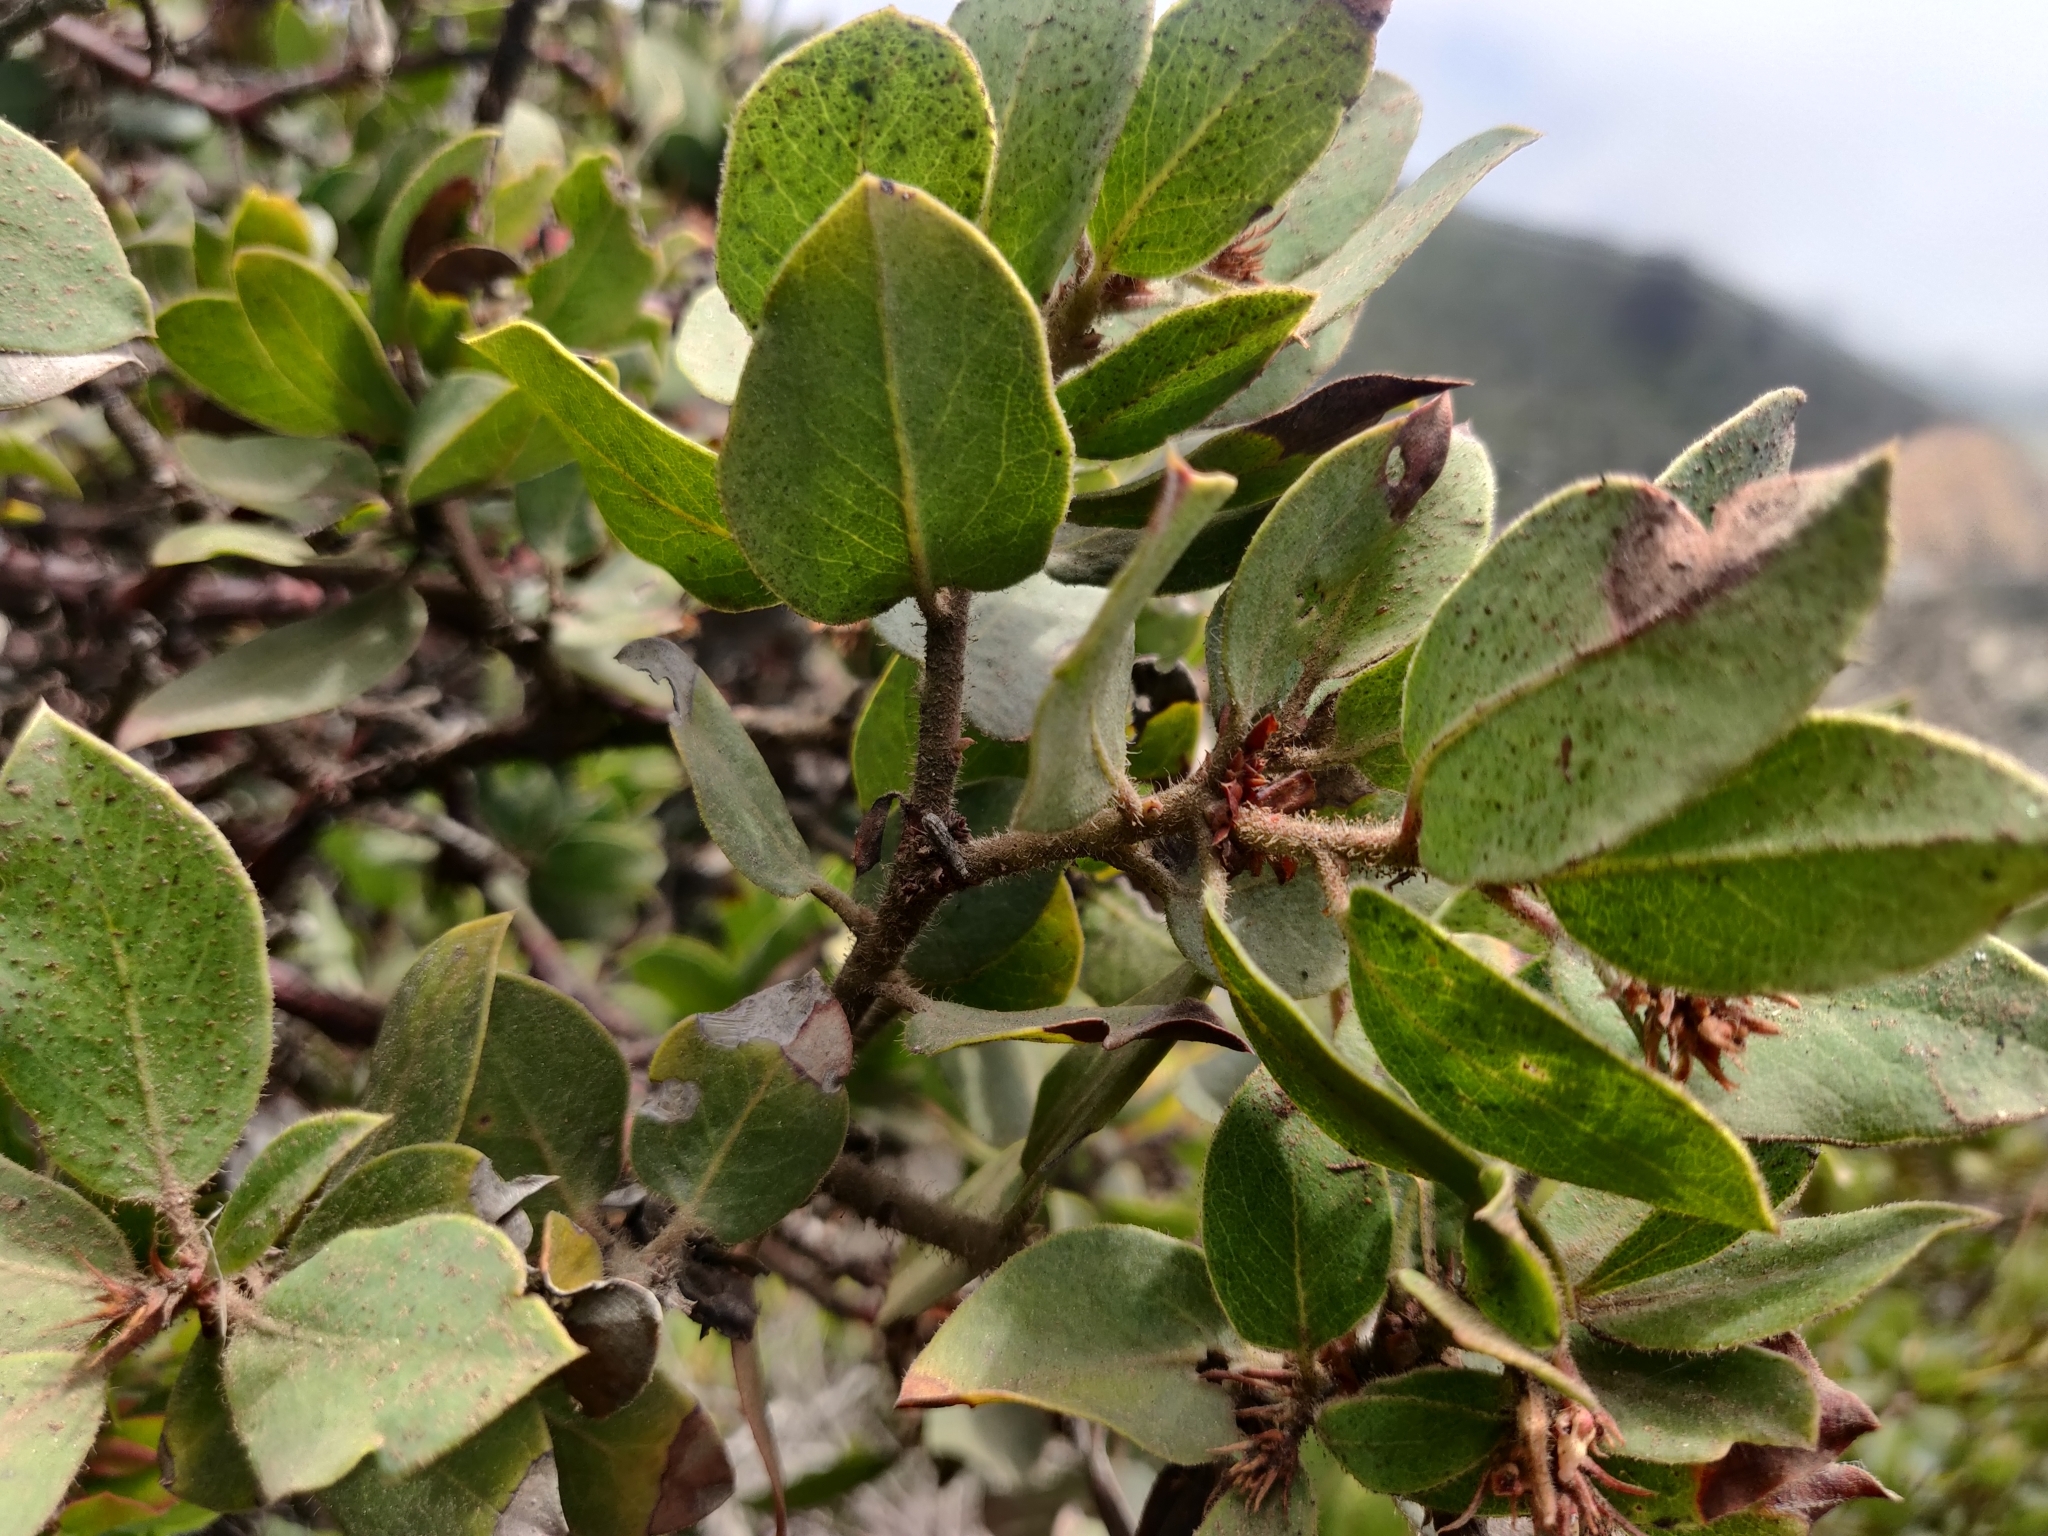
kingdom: Plantae
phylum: Tracheophyta
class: Magnoliopsida
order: Ericales
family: Ericaceae
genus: Arctostaphylos
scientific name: Arctostaphylos tomentosa
